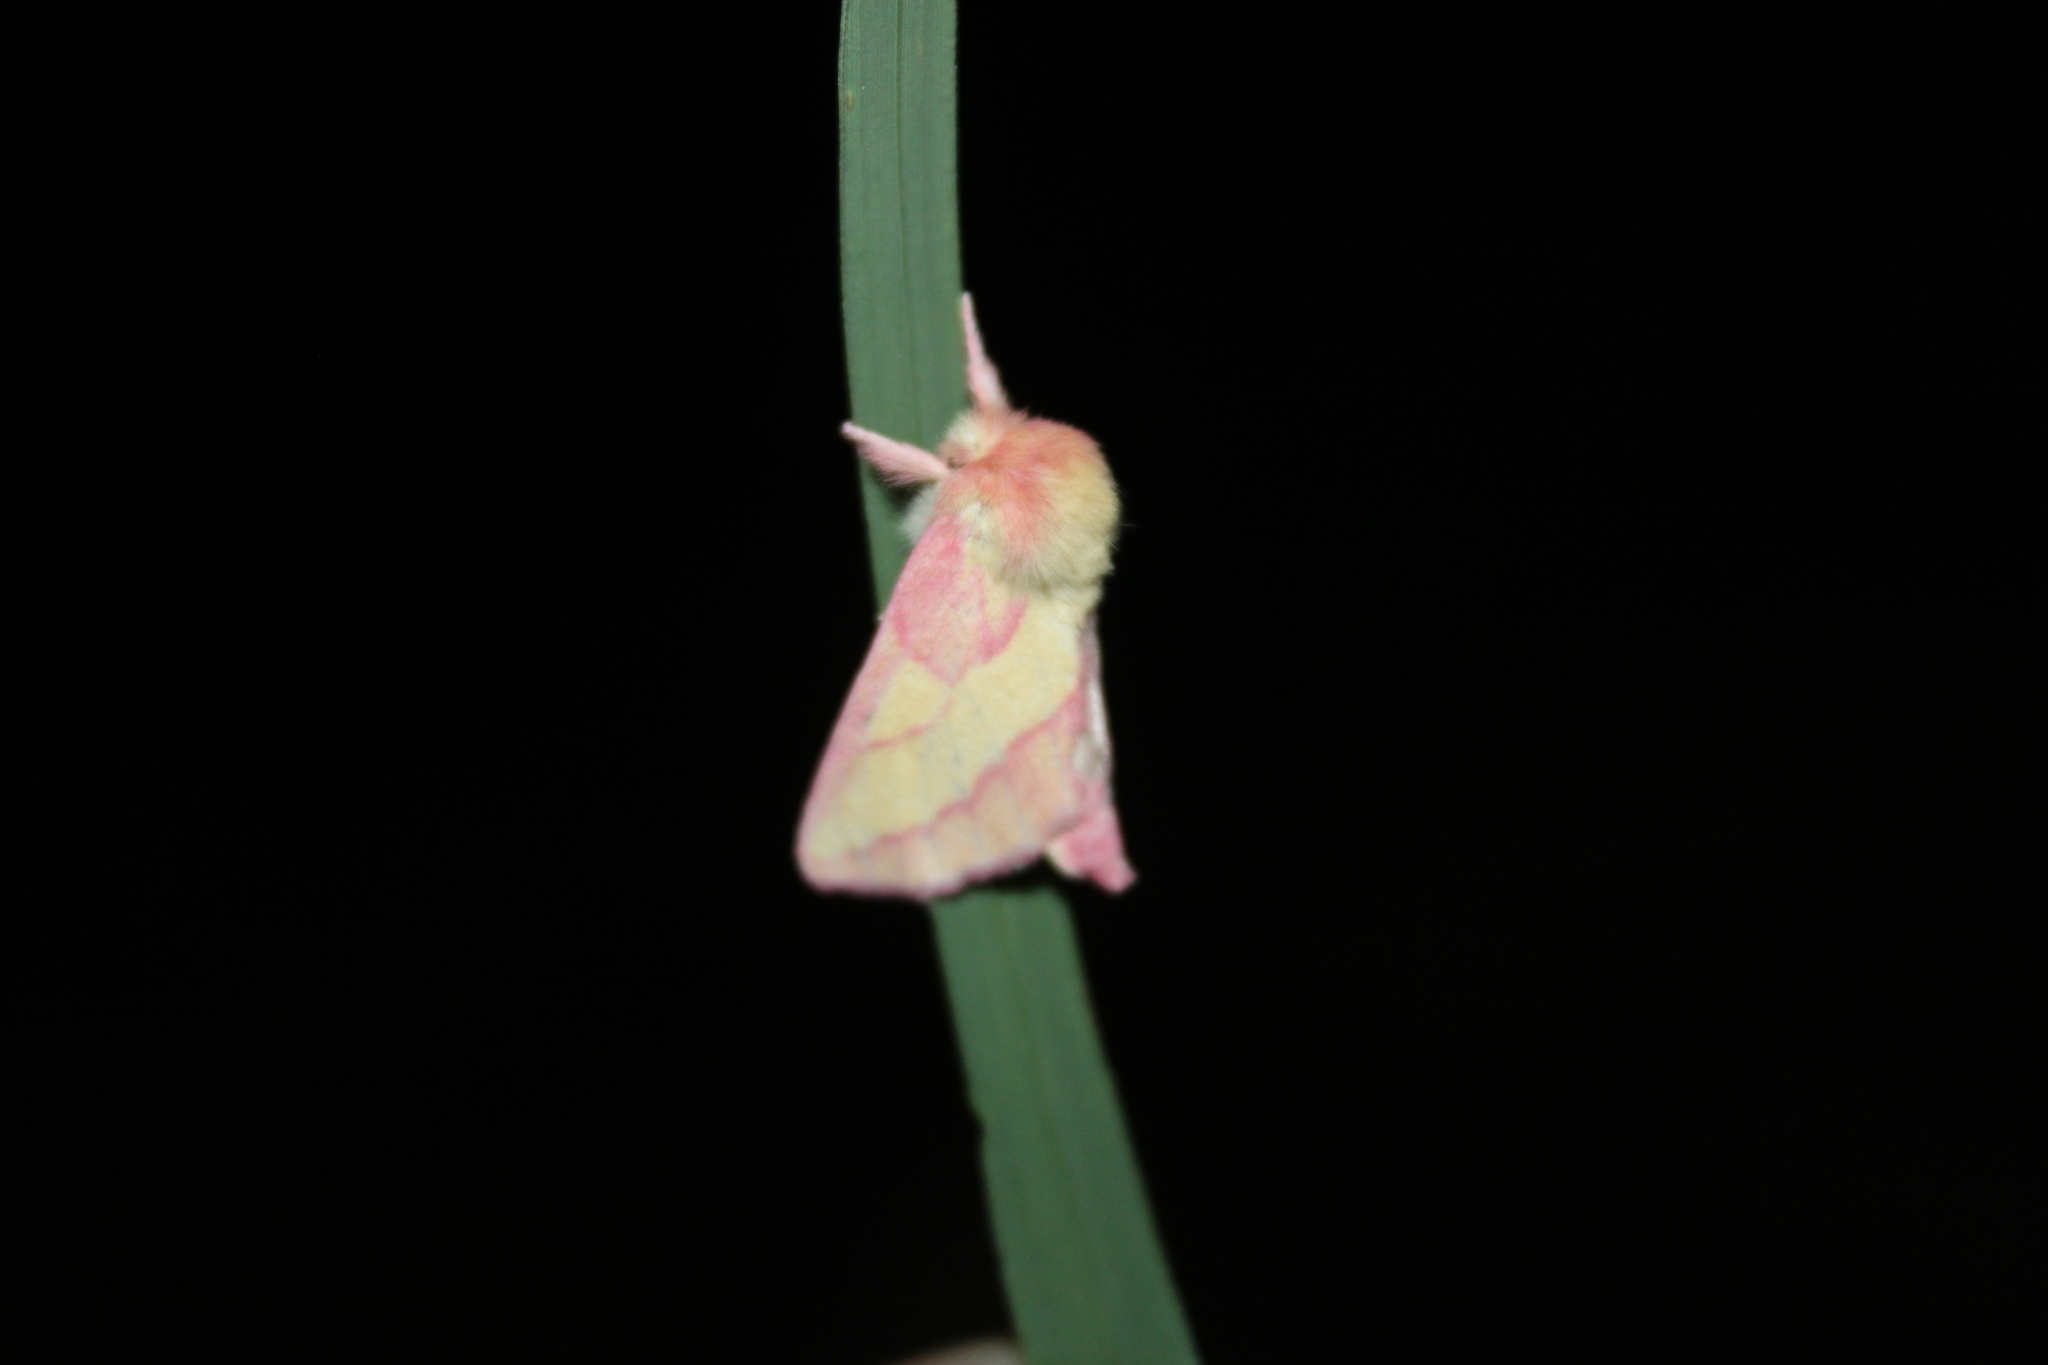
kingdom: Animalia
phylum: Arthropoda
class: Insecta
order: Lepidoptera
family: Notodontidae
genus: Hyparpax
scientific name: Hyparpax aurora
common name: Pink prominent
